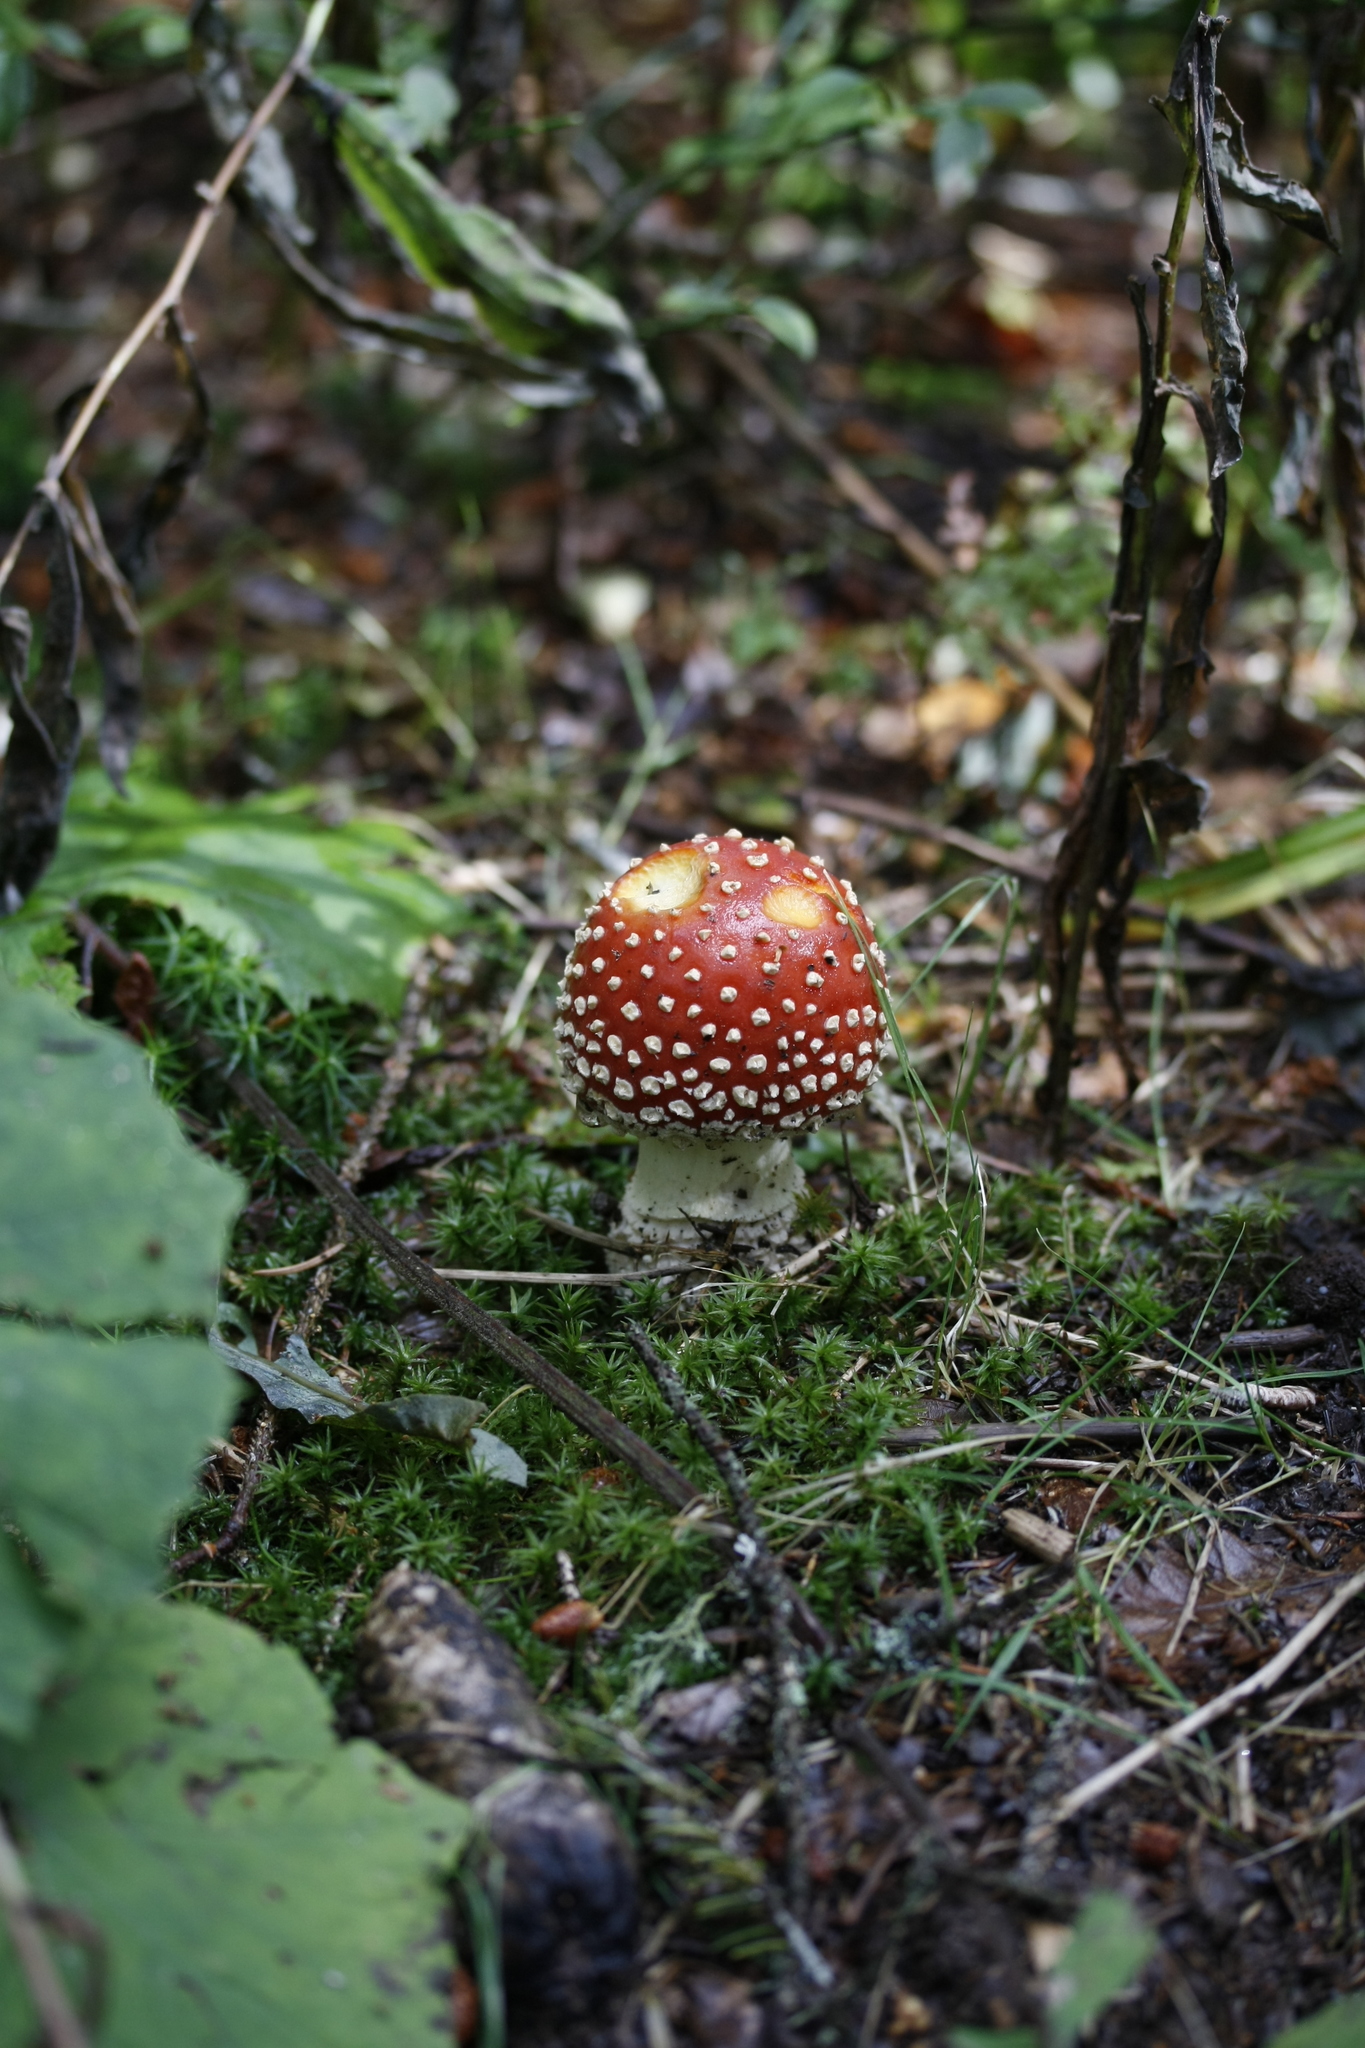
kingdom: Fungi
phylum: Basidiomycota
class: Agaricomycetes
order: Agaricales
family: Amanitaceae
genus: Amanita
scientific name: Amanita muscaria
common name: Fly agaric
